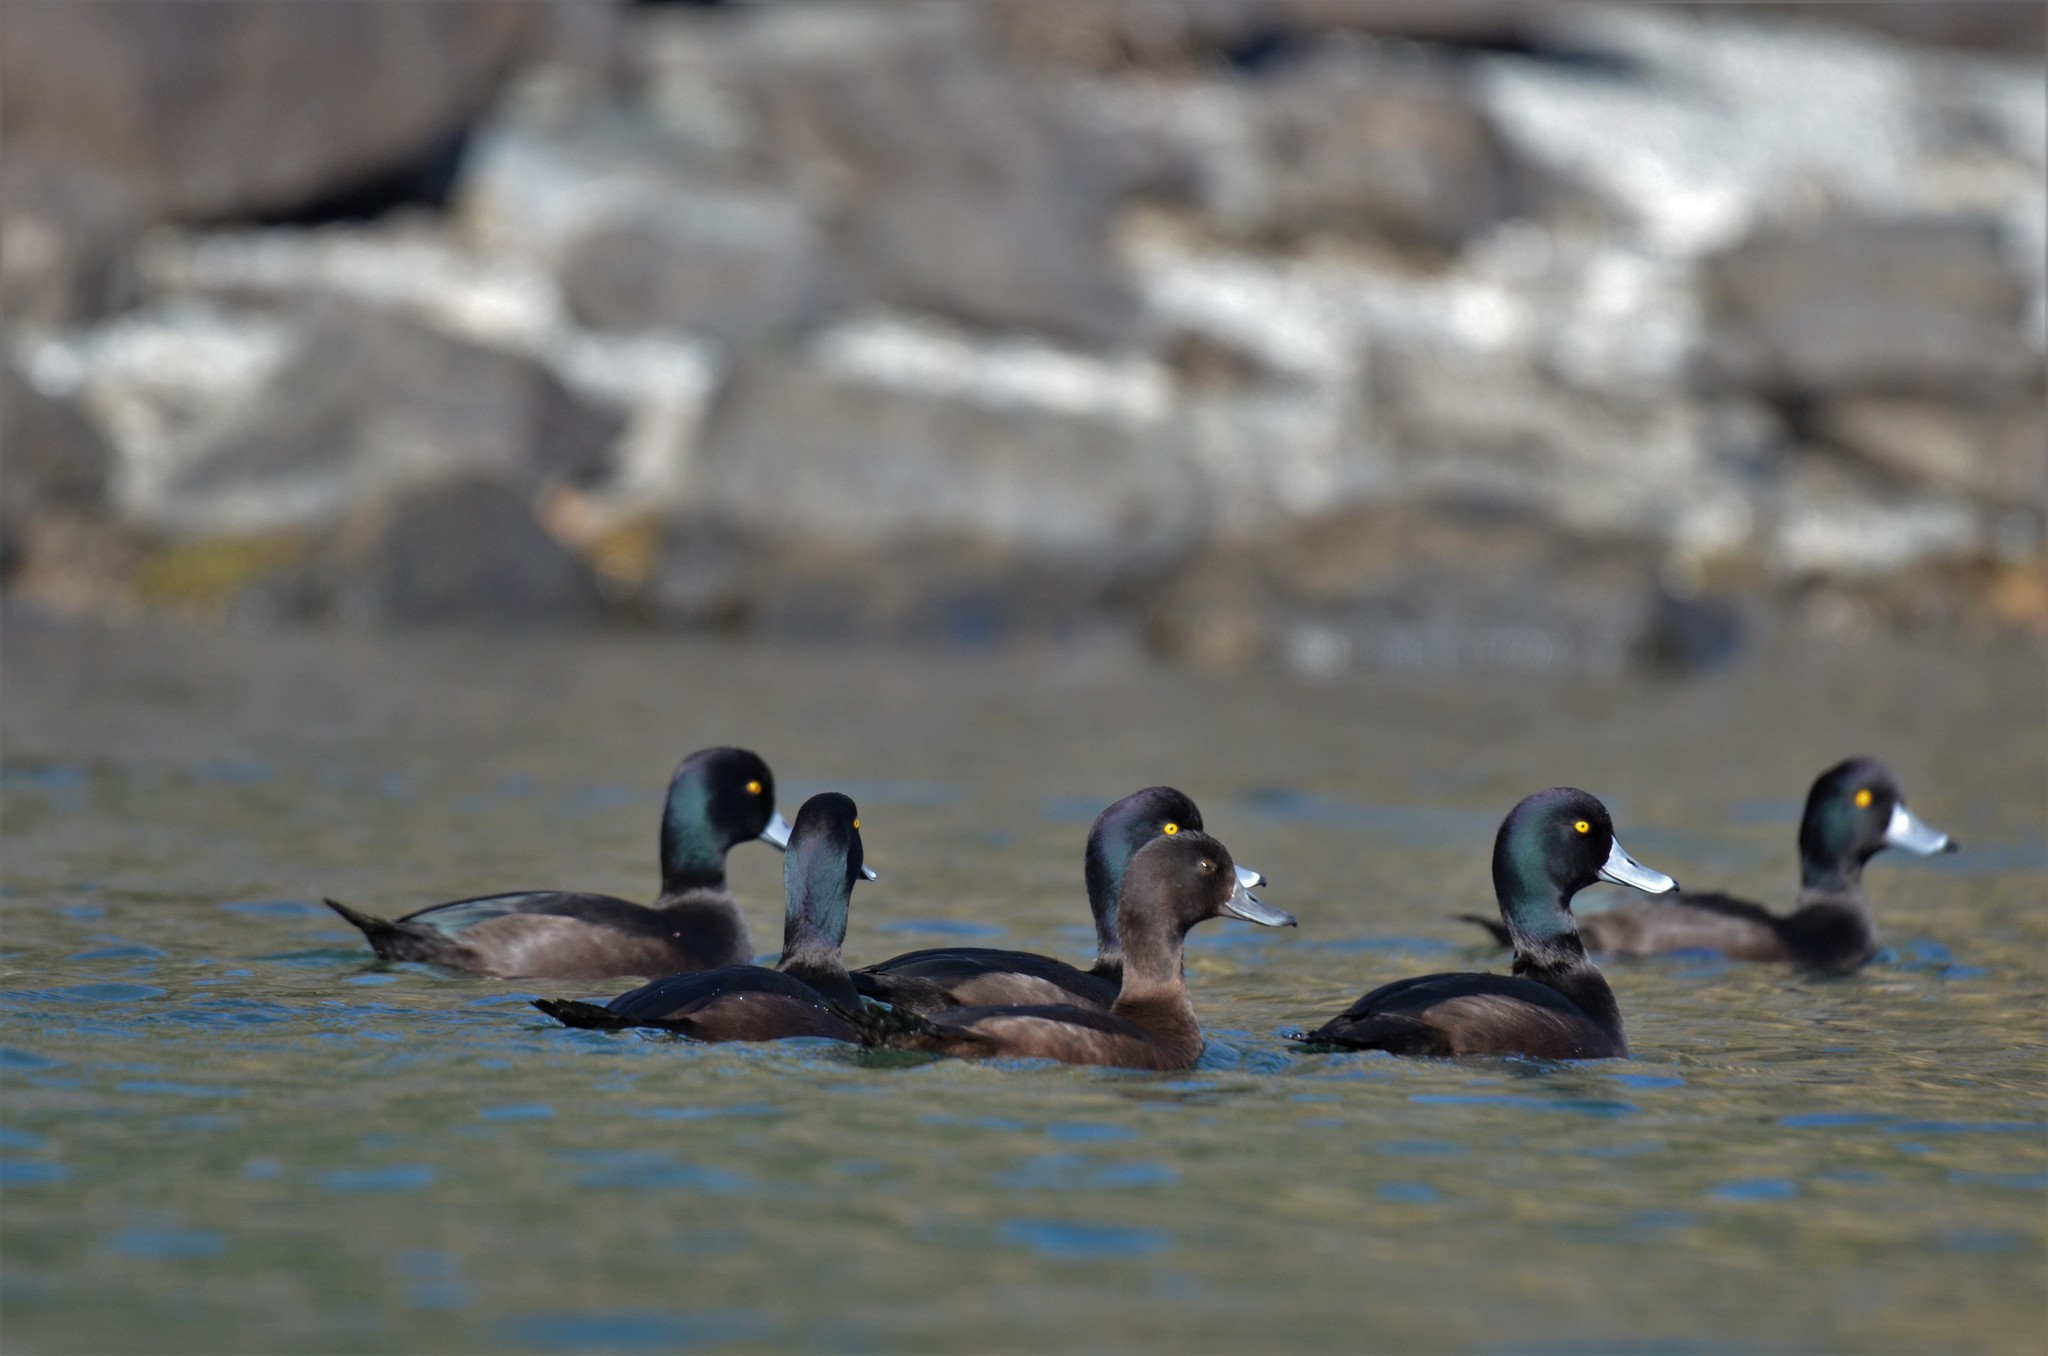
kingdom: Animalia
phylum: Chordata
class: Aves
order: Anseriformes
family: Anatidae
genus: Aythya
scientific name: Aythya novaeseelandiae
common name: New zealand scaup
